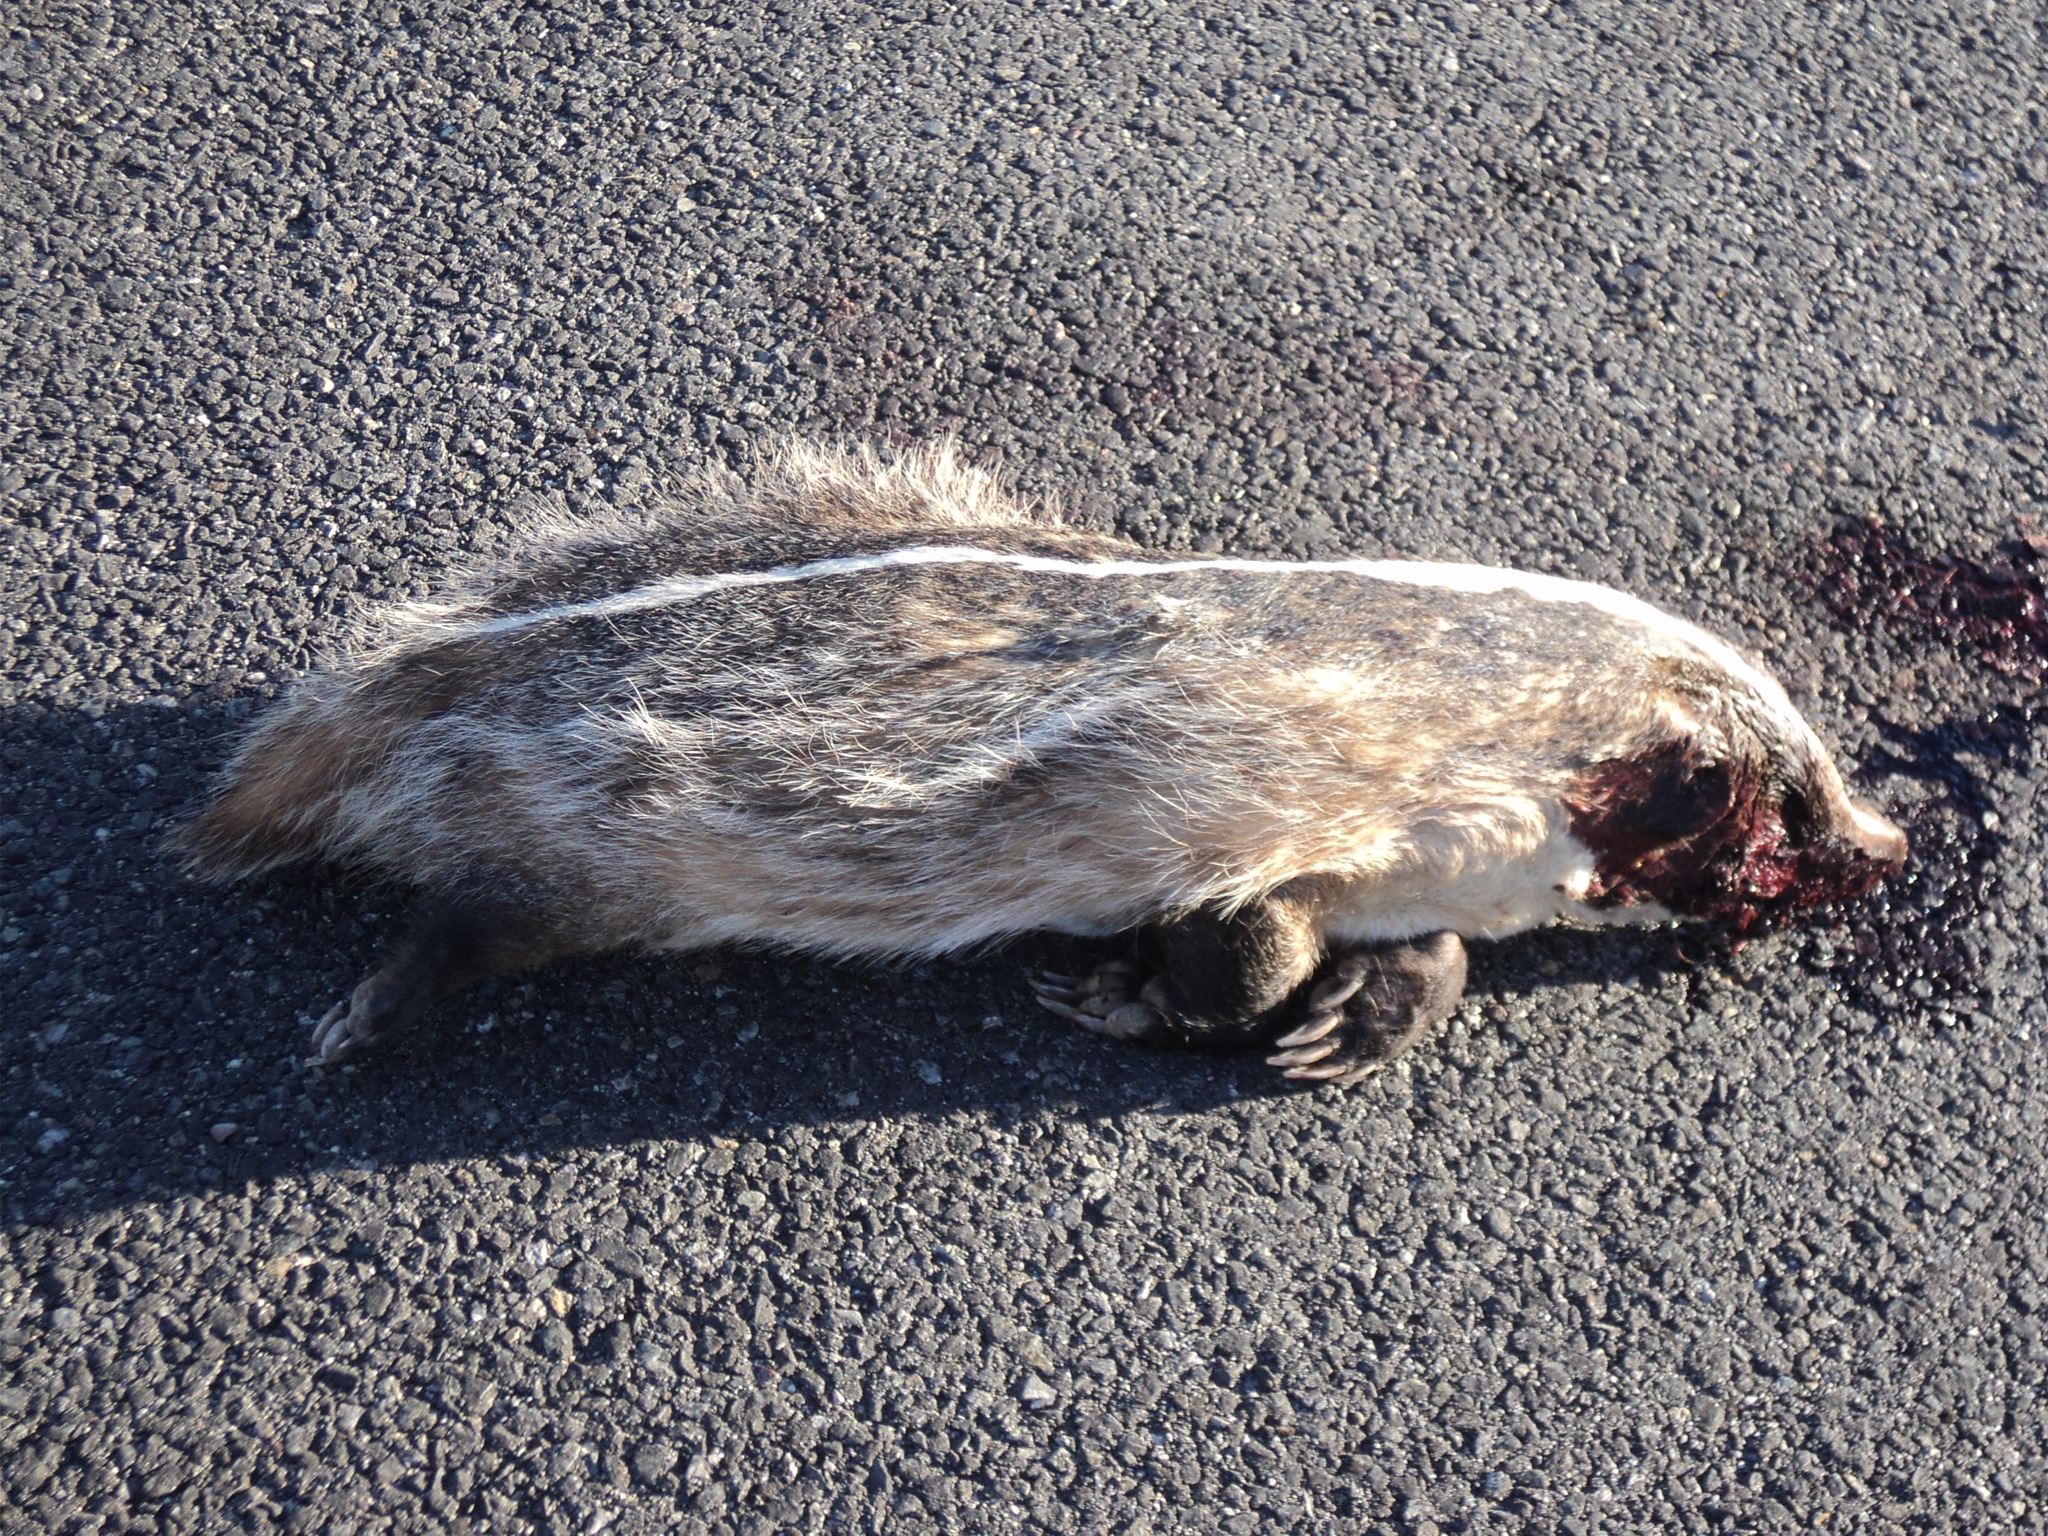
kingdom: Animalia
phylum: Chordata
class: Mammalia
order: Carnivora
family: Mustelidae
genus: Taxidea
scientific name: Taxidea taxus
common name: American badger
